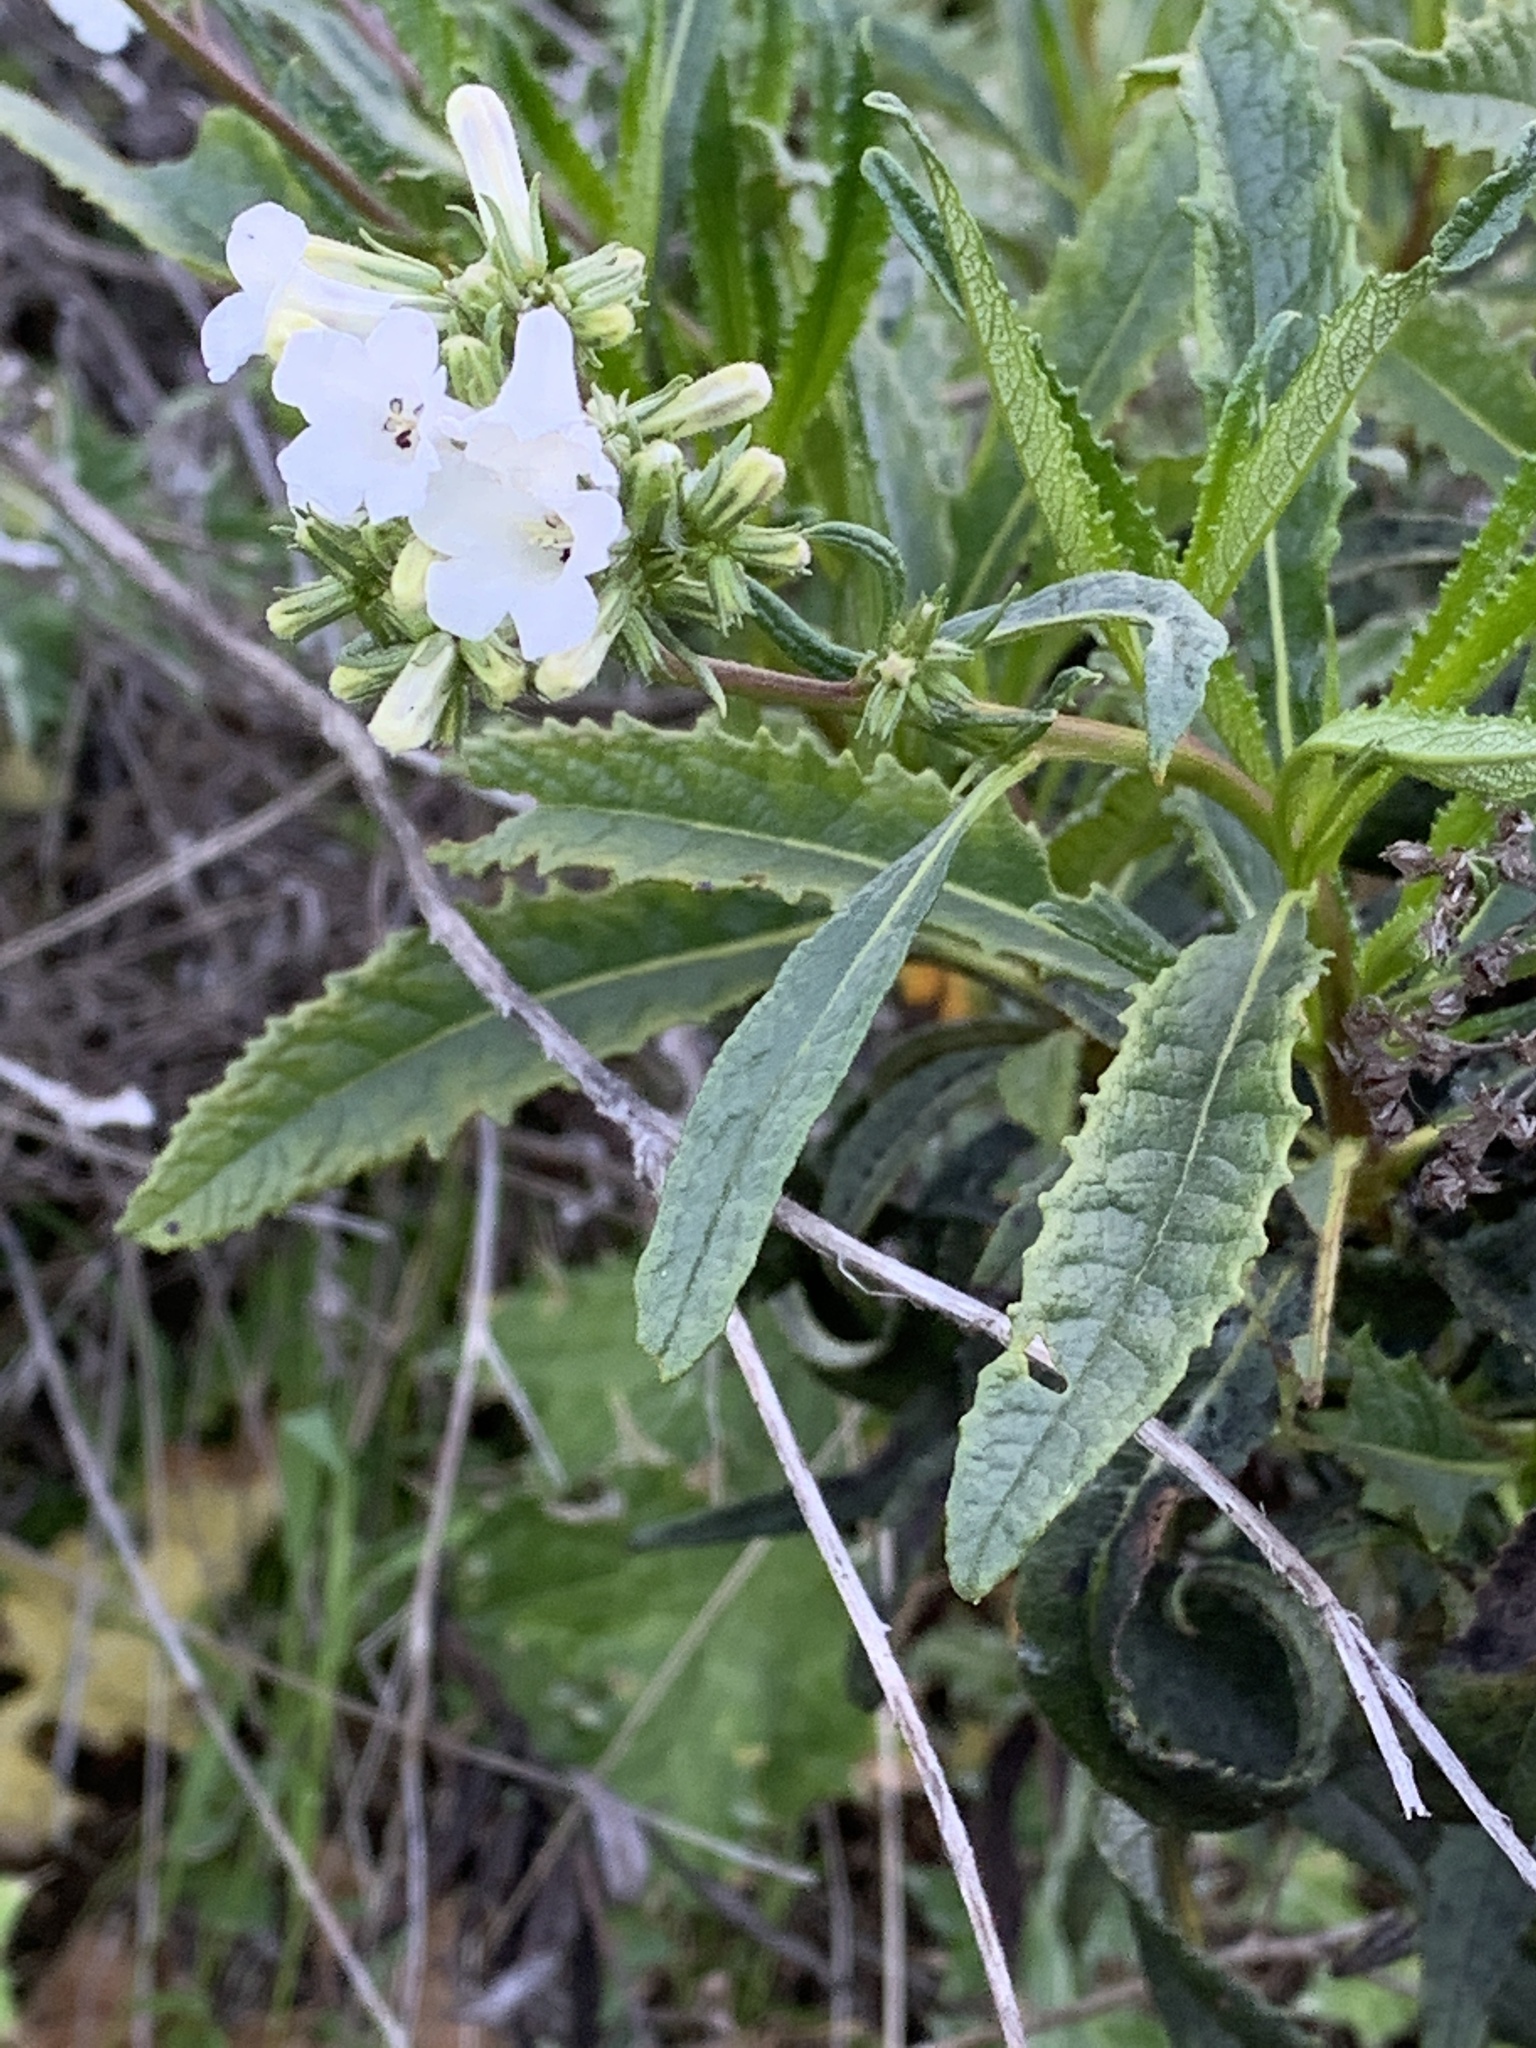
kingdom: Plantae
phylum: Tracheophyta
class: Magnoliopsida
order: Boraginales
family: Namaceae
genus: Eriodictyon
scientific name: Eriodictyon californicum
